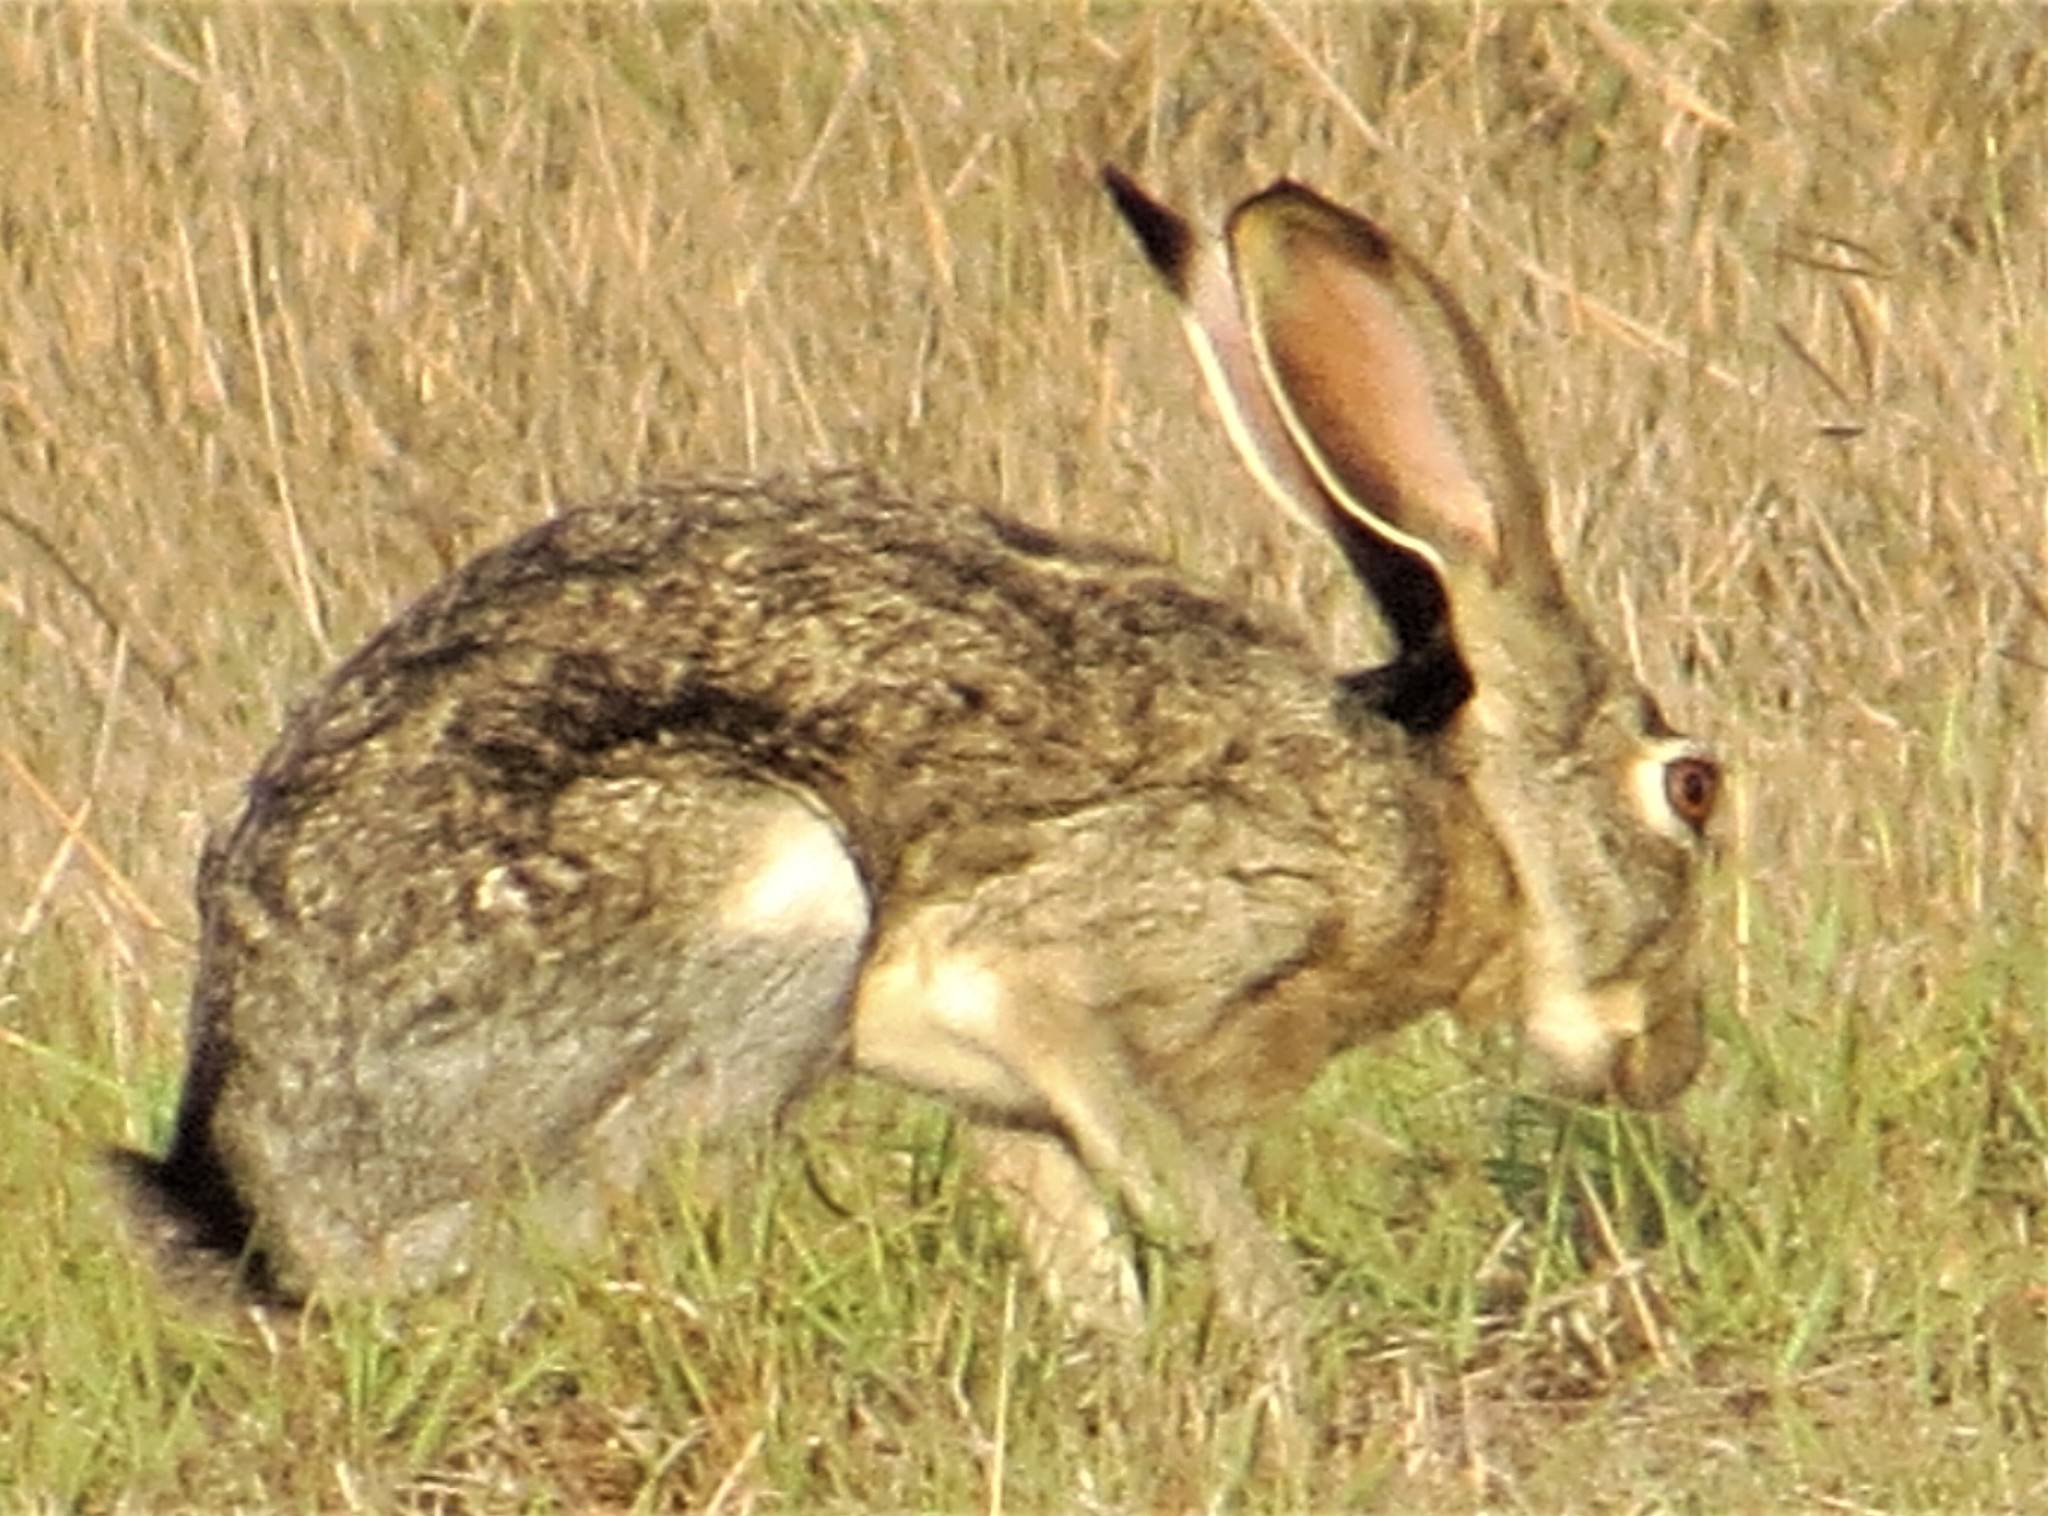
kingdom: Animalia
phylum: Chordata
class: Mammalia
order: Lagomorpha
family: Leporidae
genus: Lepus
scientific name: Lepus californicus
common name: Black-tailed jackrabbit
